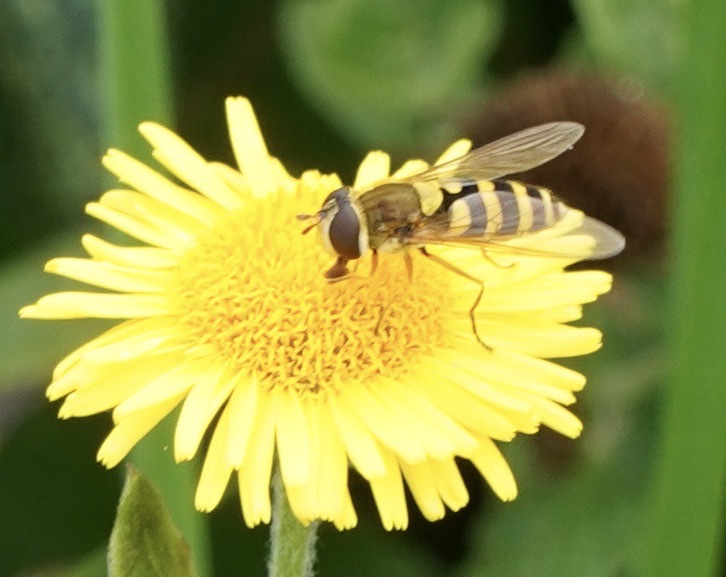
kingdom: Animalia
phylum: Arthropoda
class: Insecta
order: Diptera
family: Syrphidae
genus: Syrphus
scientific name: Syrphus ribesii
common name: Common flower fly
